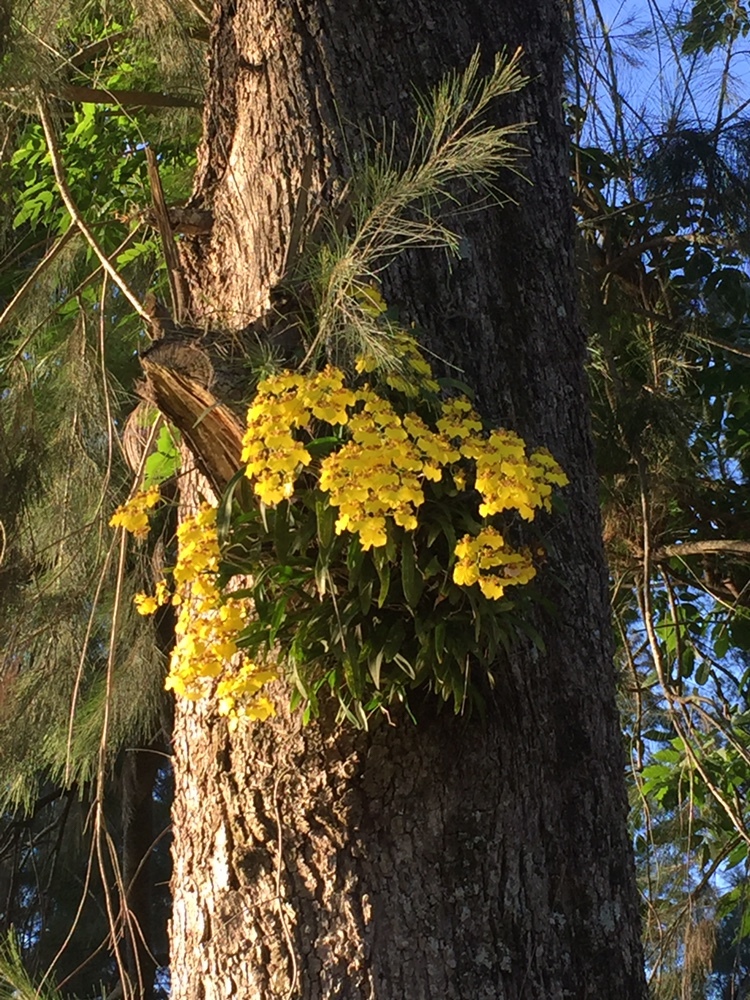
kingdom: Plantae
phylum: Tracheophyta
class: Liliopsida
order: Asparagales
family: Orchidaceae
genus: Gomesa
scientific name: Gomesa bifolia
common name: Dancing ladies
